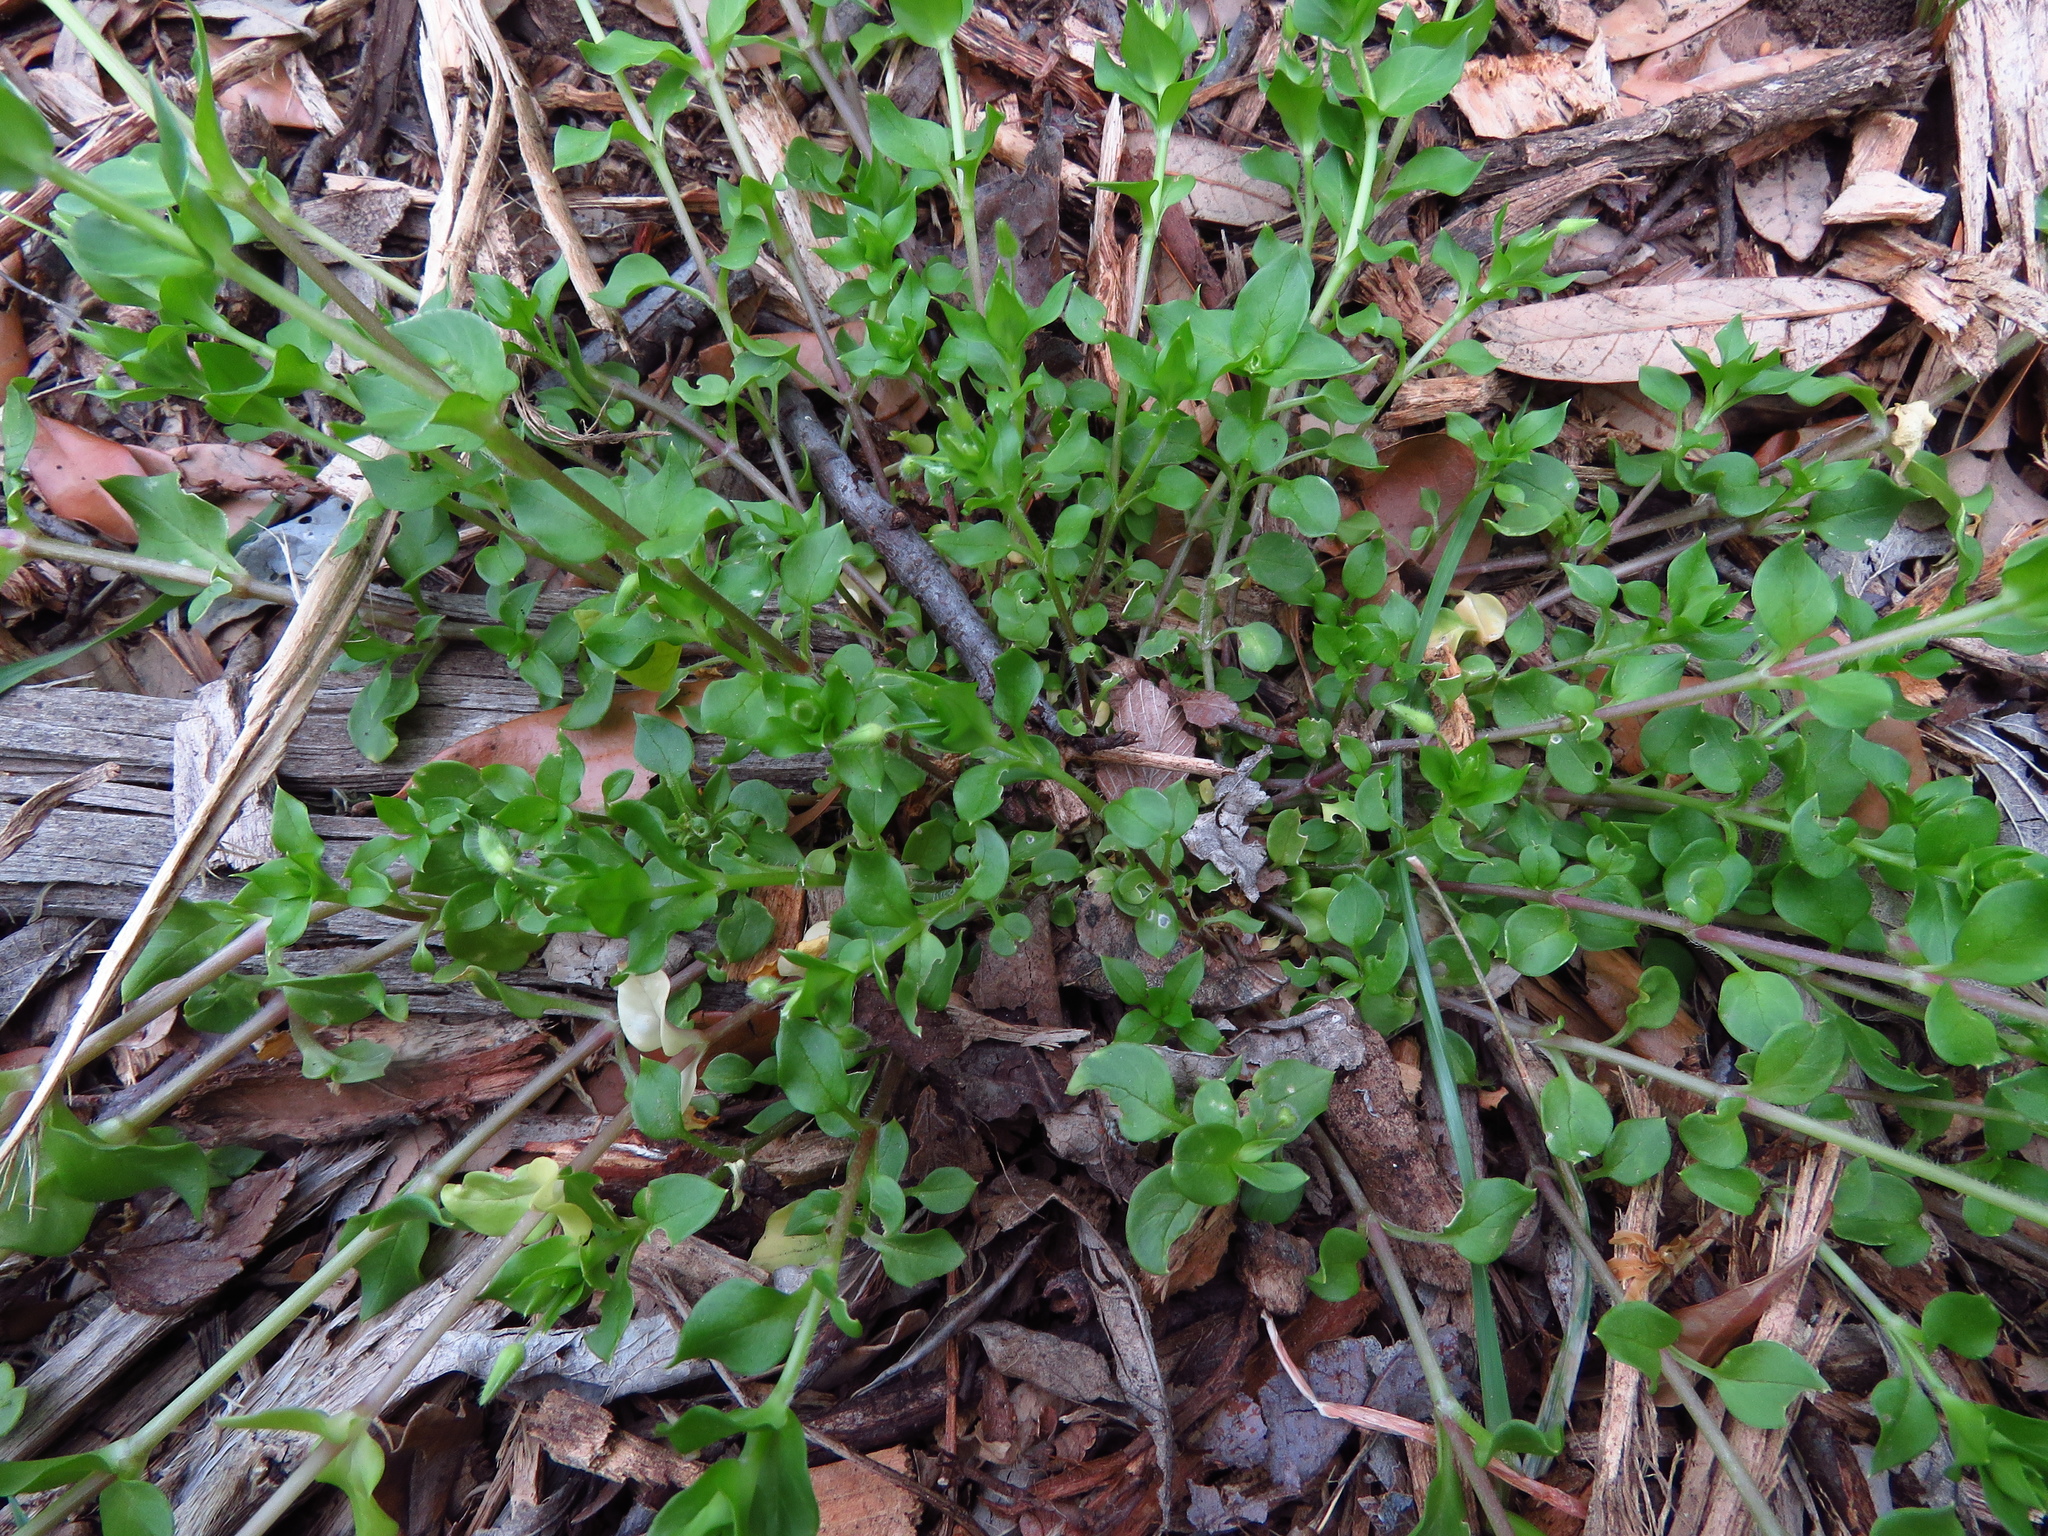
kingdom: Plantae
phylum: Tracheophyta
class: Magnoliopsida
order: Caryophyllales
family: Caryophyllaceae
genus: Stellaria
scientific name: Stellaria media
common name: Common chickweed
